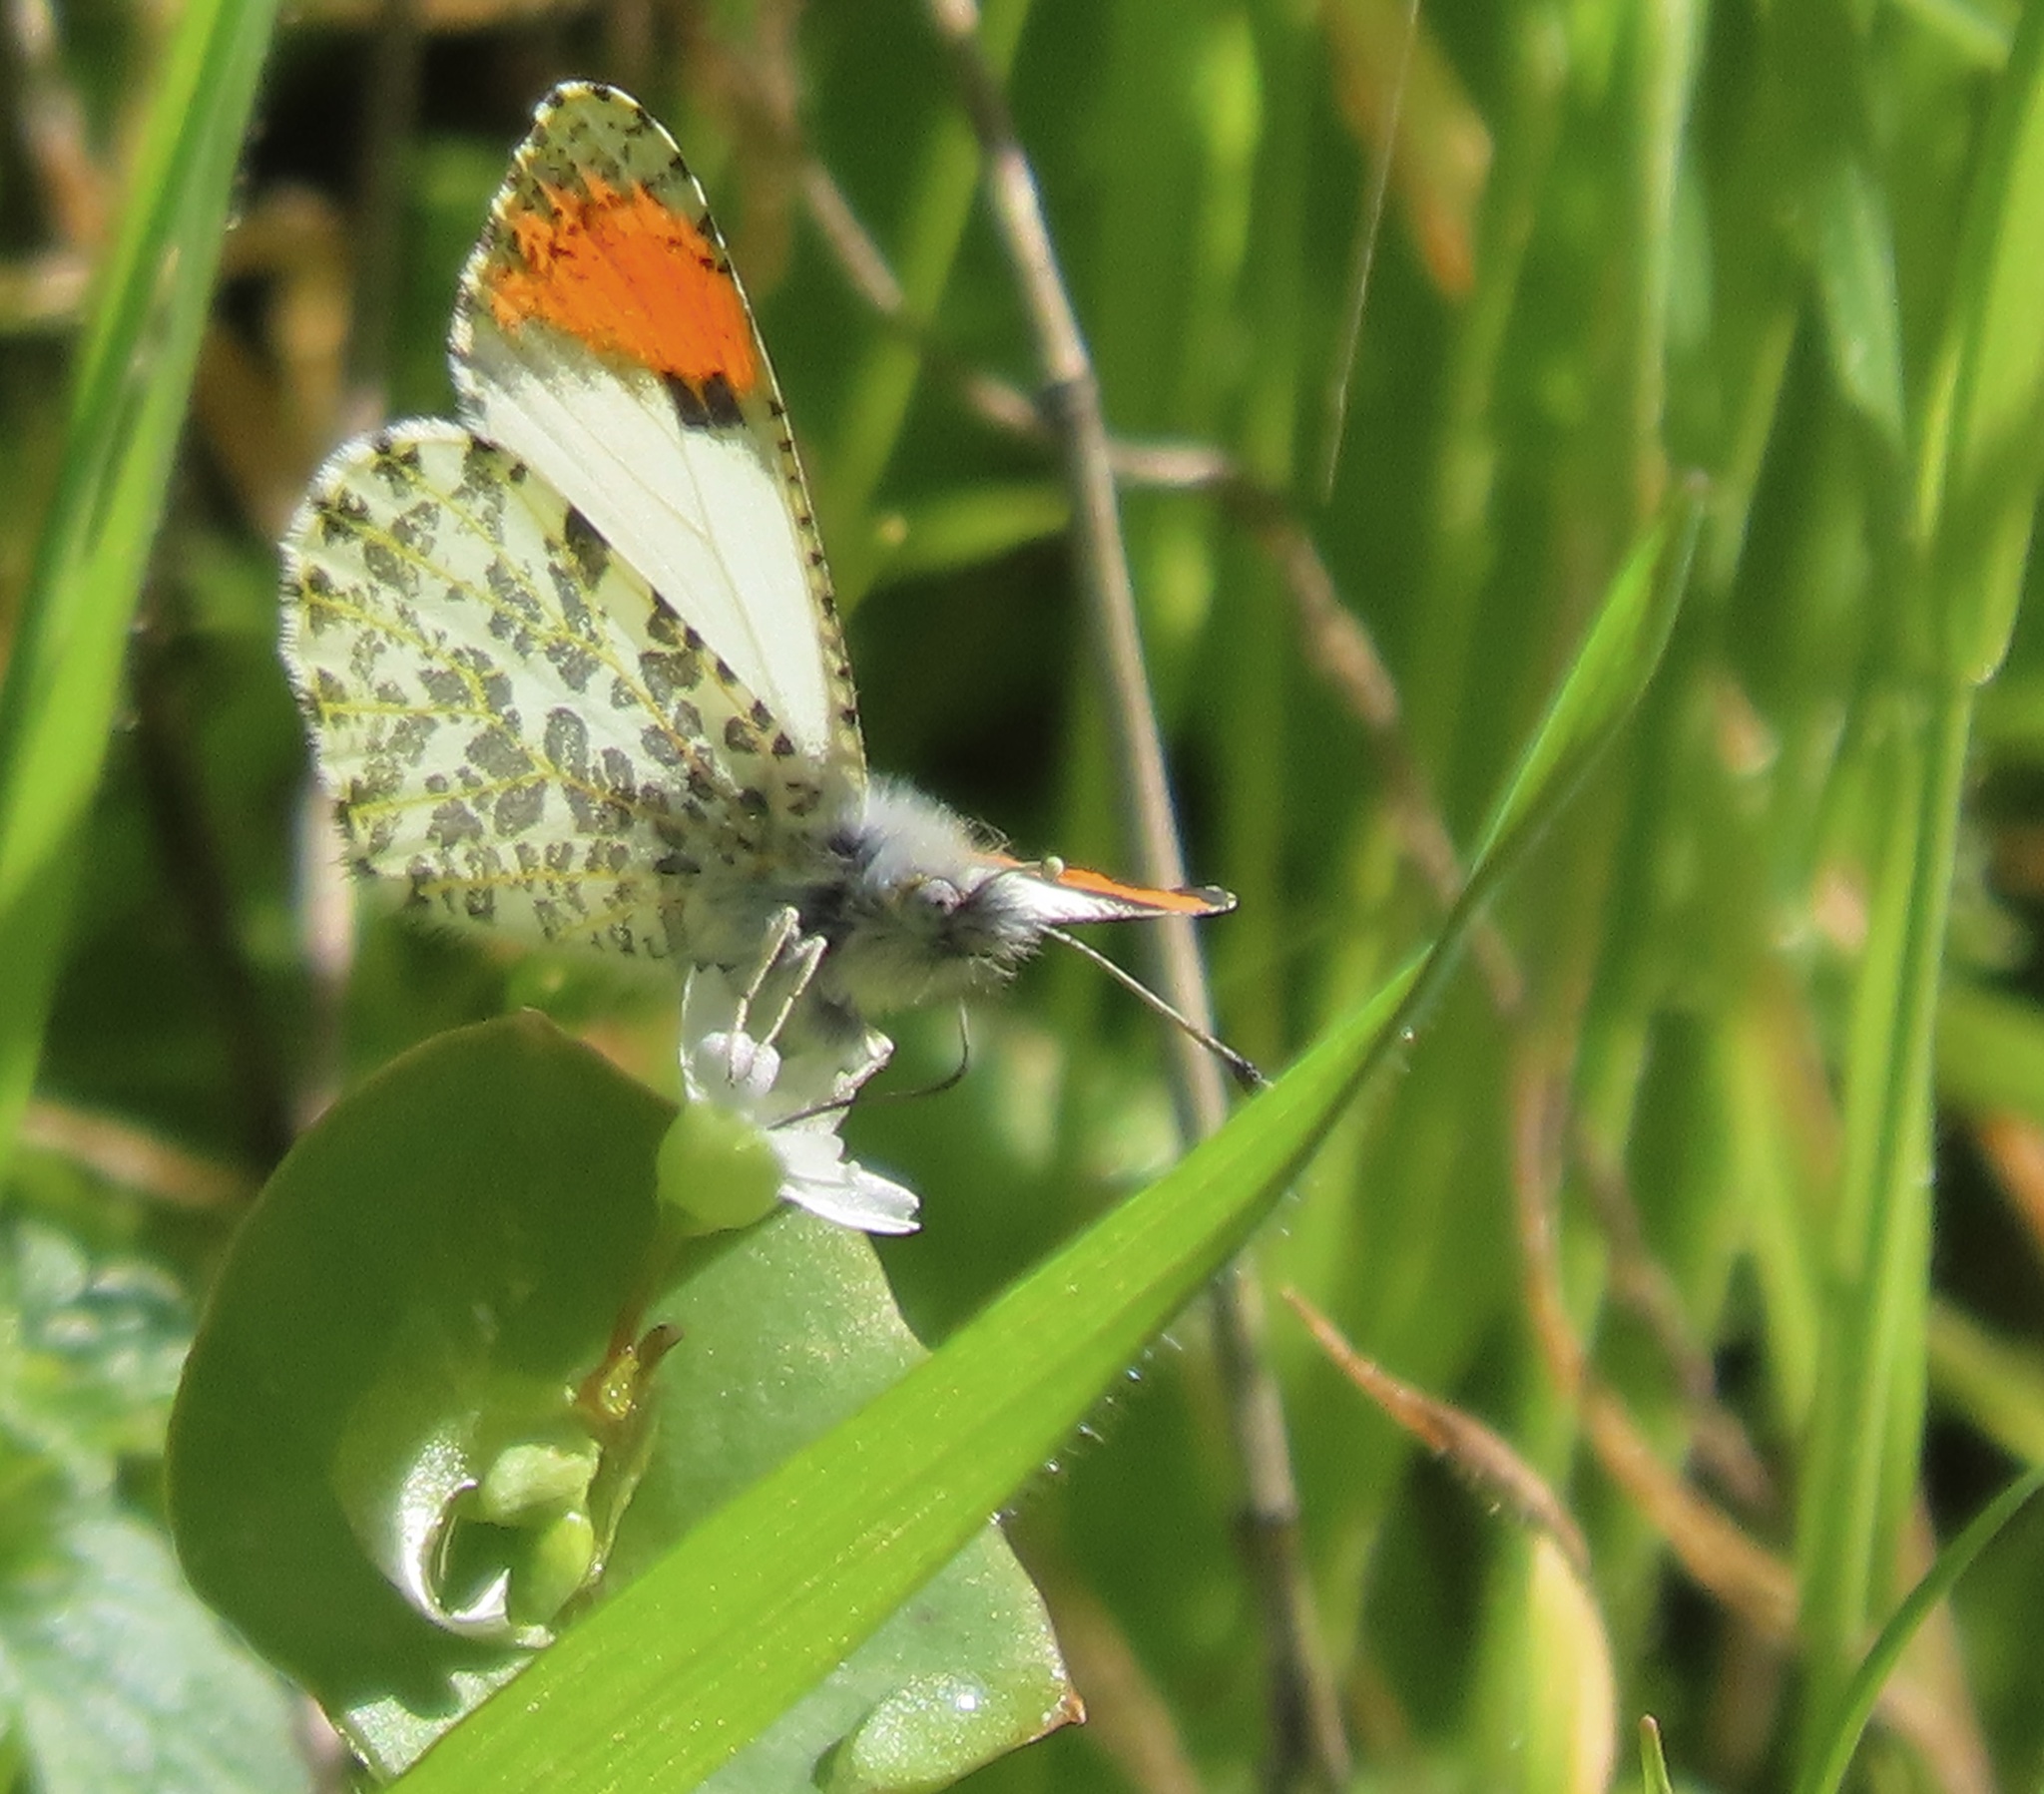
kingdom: Animalia
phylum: Arthropoda
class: Insecta
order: Lepidoptera
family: Pieridae
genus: Anthocharis
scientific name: Anthocharis sara
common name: Sara's orangetip
